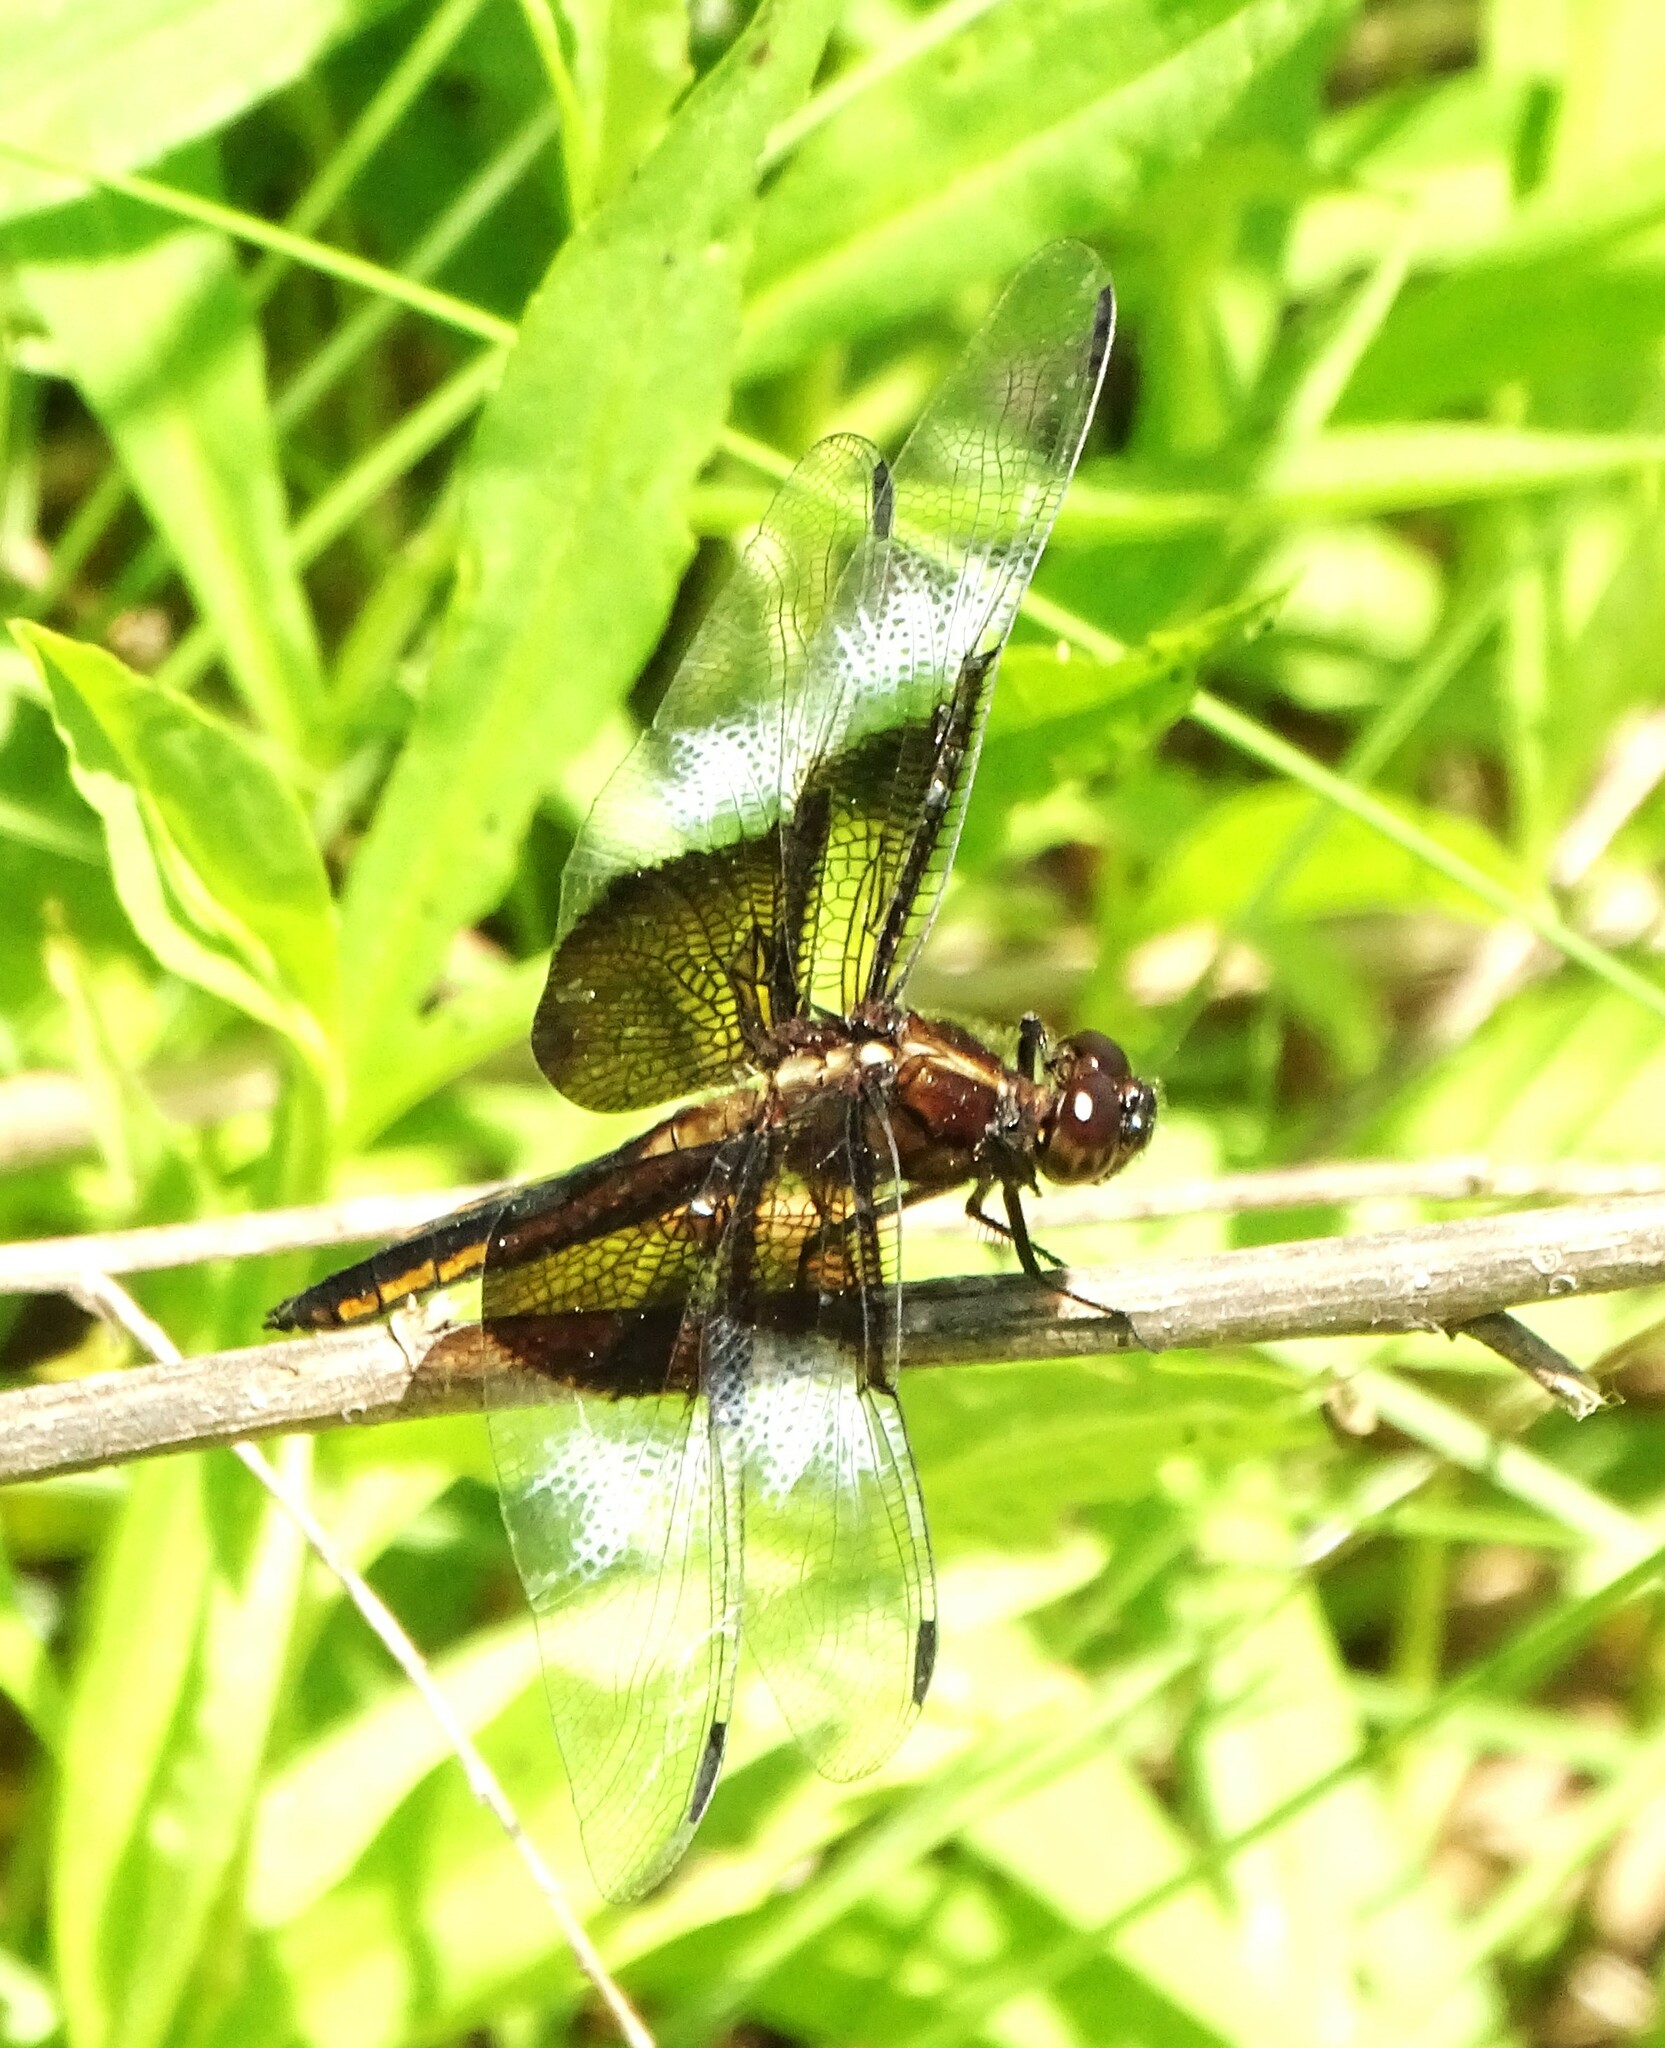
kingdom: Animalia
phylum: Arthropoda
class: Insecta
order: Odonata
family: Libellulidae
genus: Libellula
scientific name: Libellula luctuosa
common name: Widow skimmer
